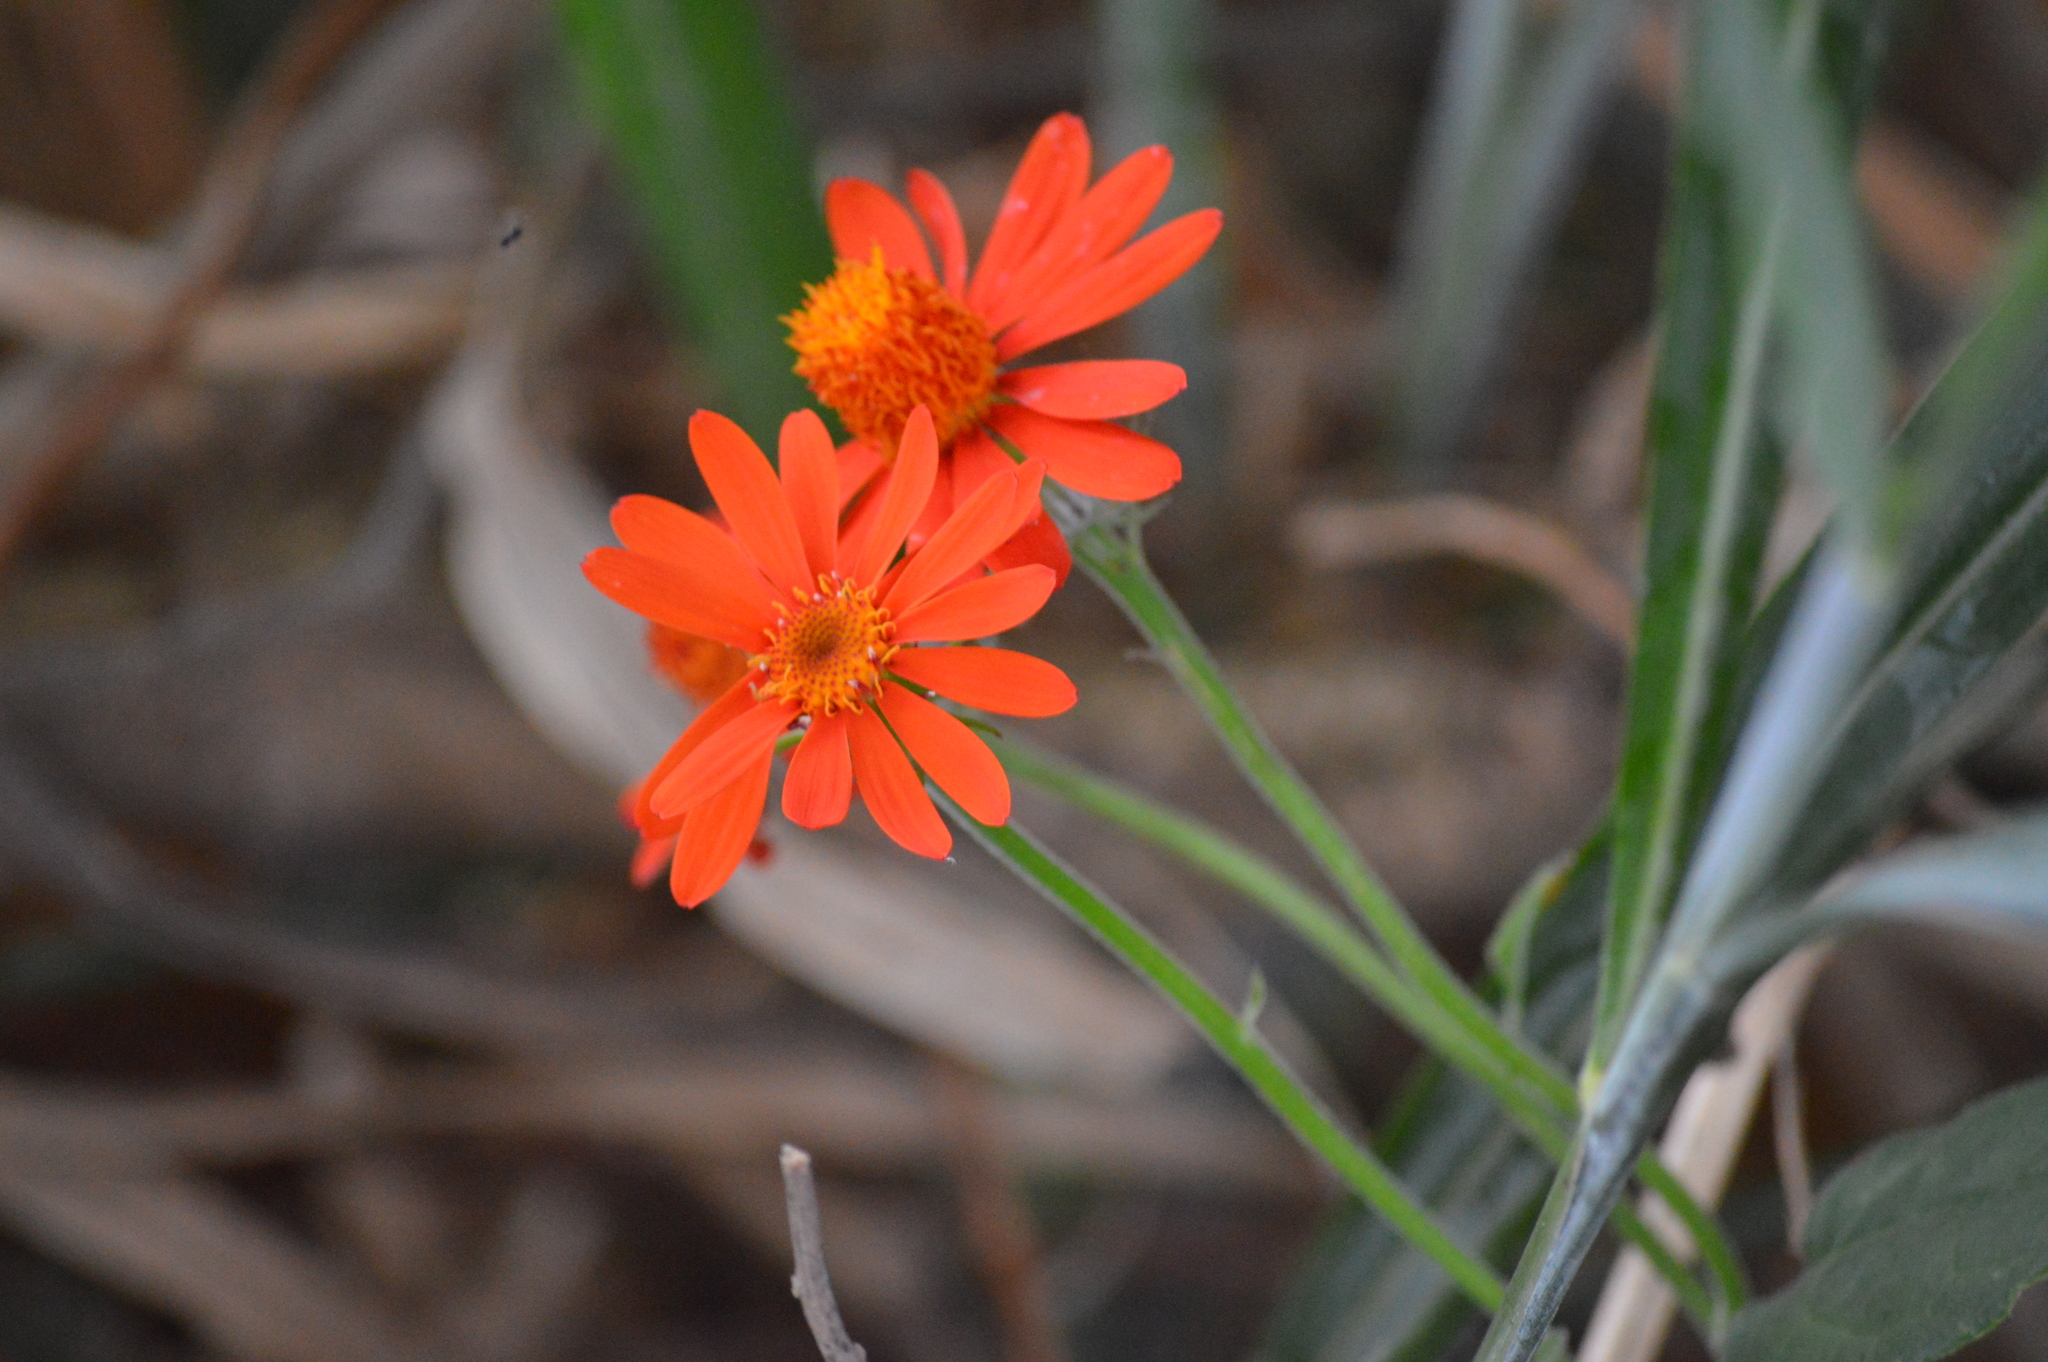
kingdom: Plantae
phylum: Tracheophyta
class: Magnoliopsida
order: Asterales
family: Asteraceae
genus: Pseudogynoxys
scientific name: Pseudogynoxys chenopodioides
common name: Mexican flamevine
